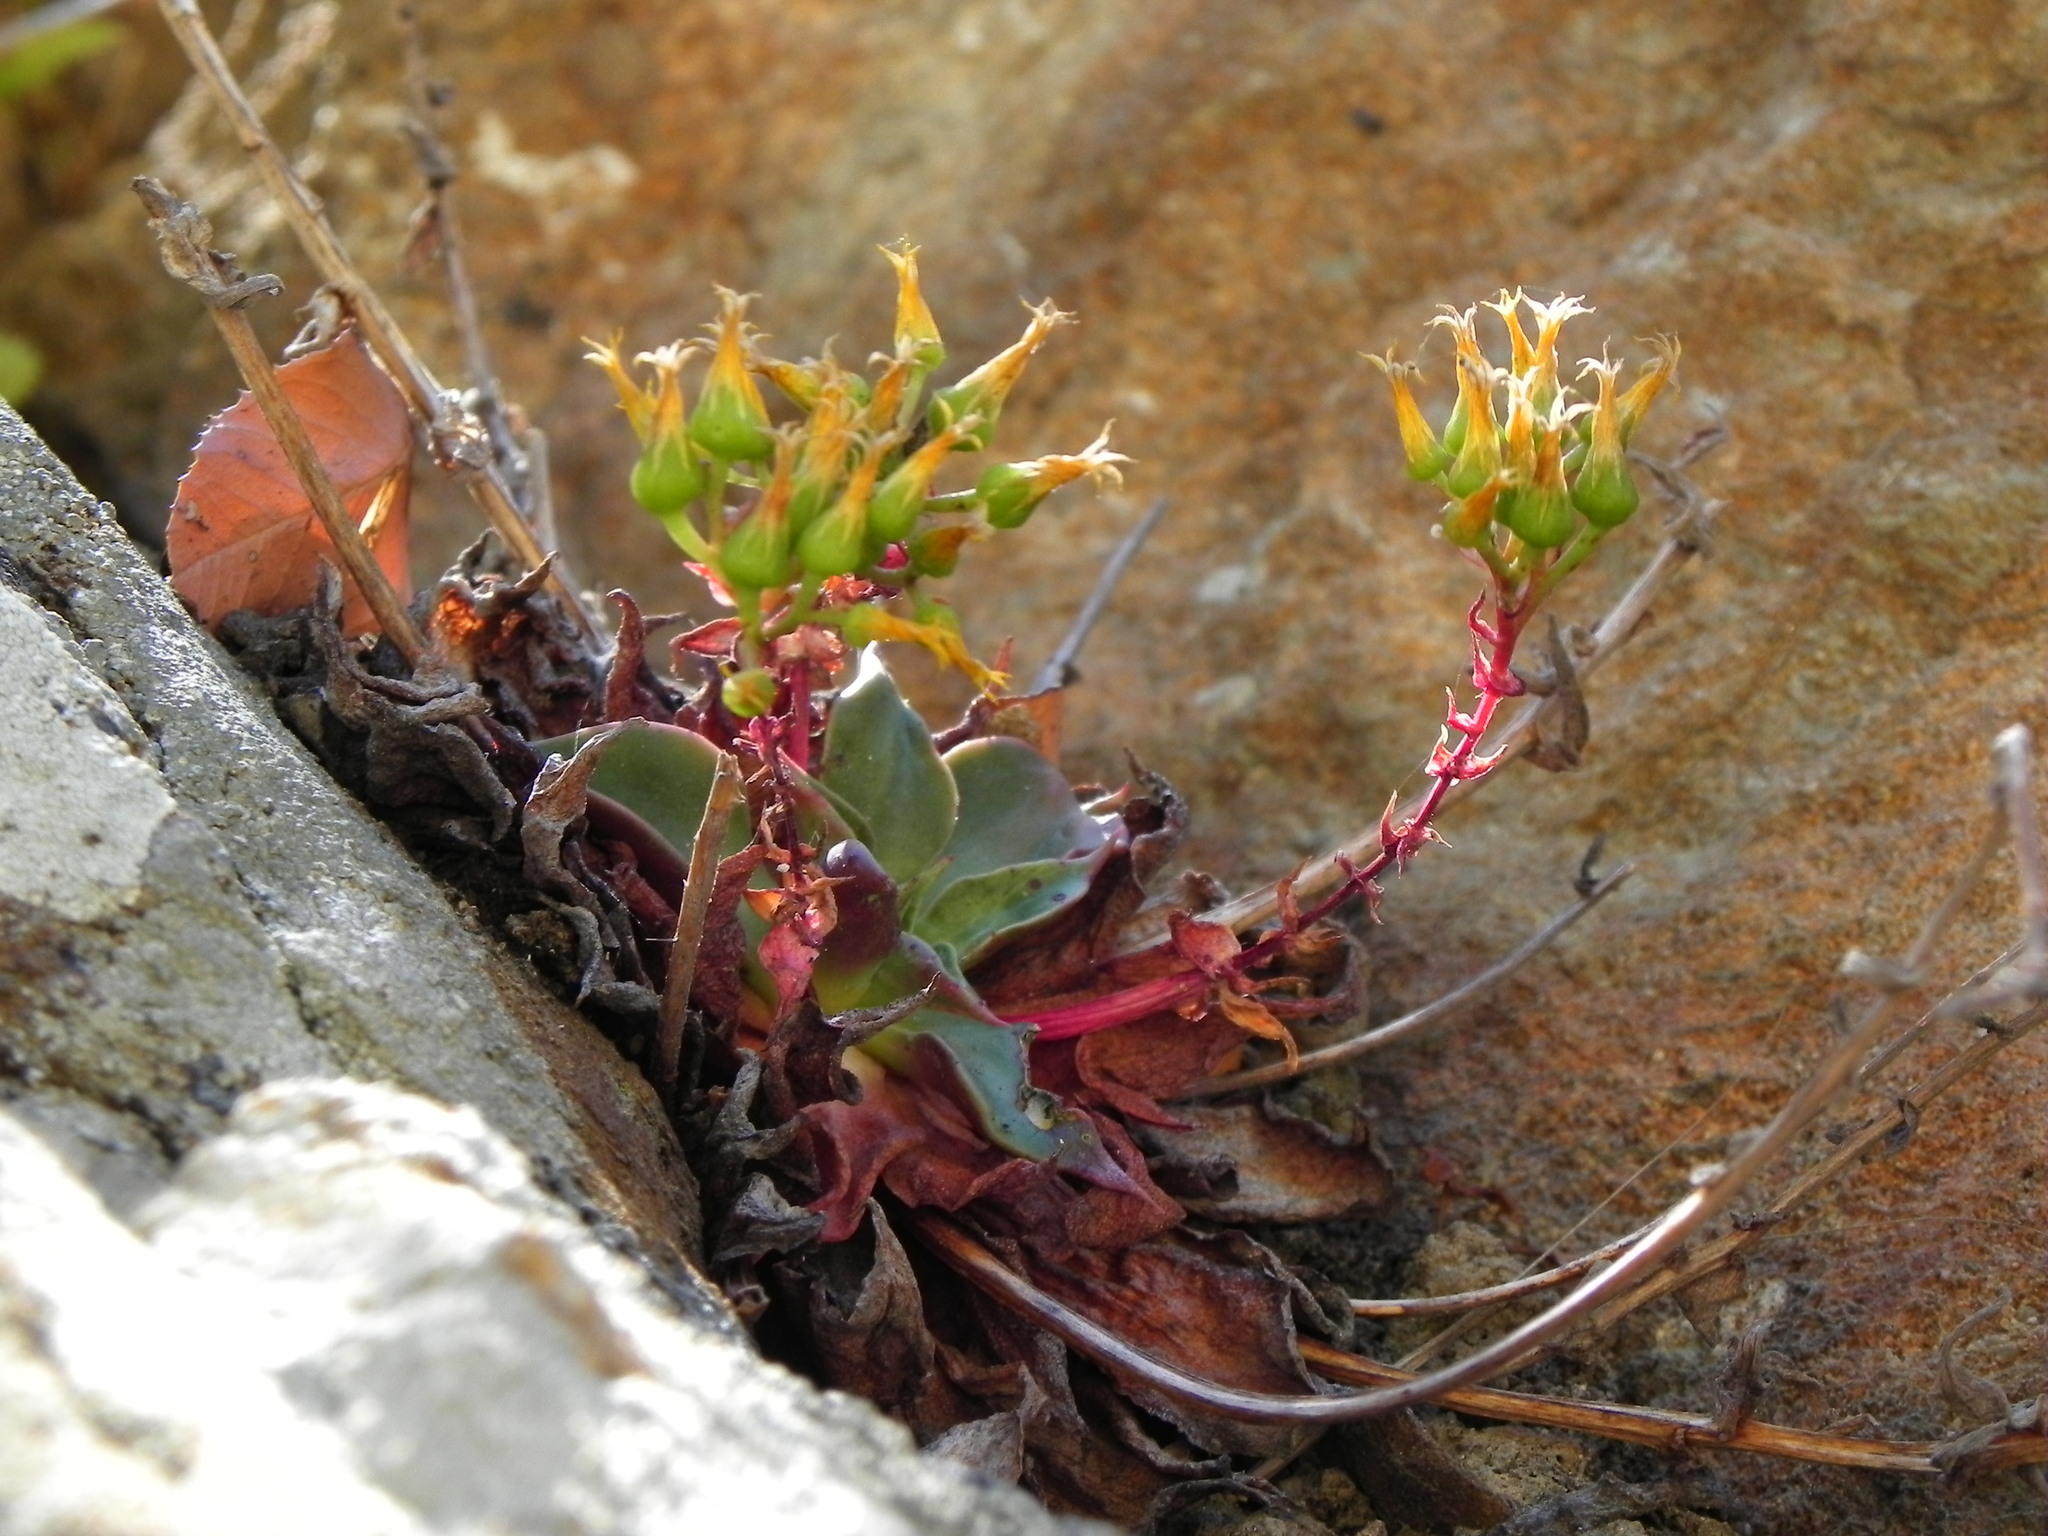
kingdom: Plantae
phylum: Tracheophyta
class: Magnoliopsida
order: Saxifragales
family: Crassulaceae
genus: Dudleya
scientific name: Dudleya cymosa
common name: Canyon dudleya
